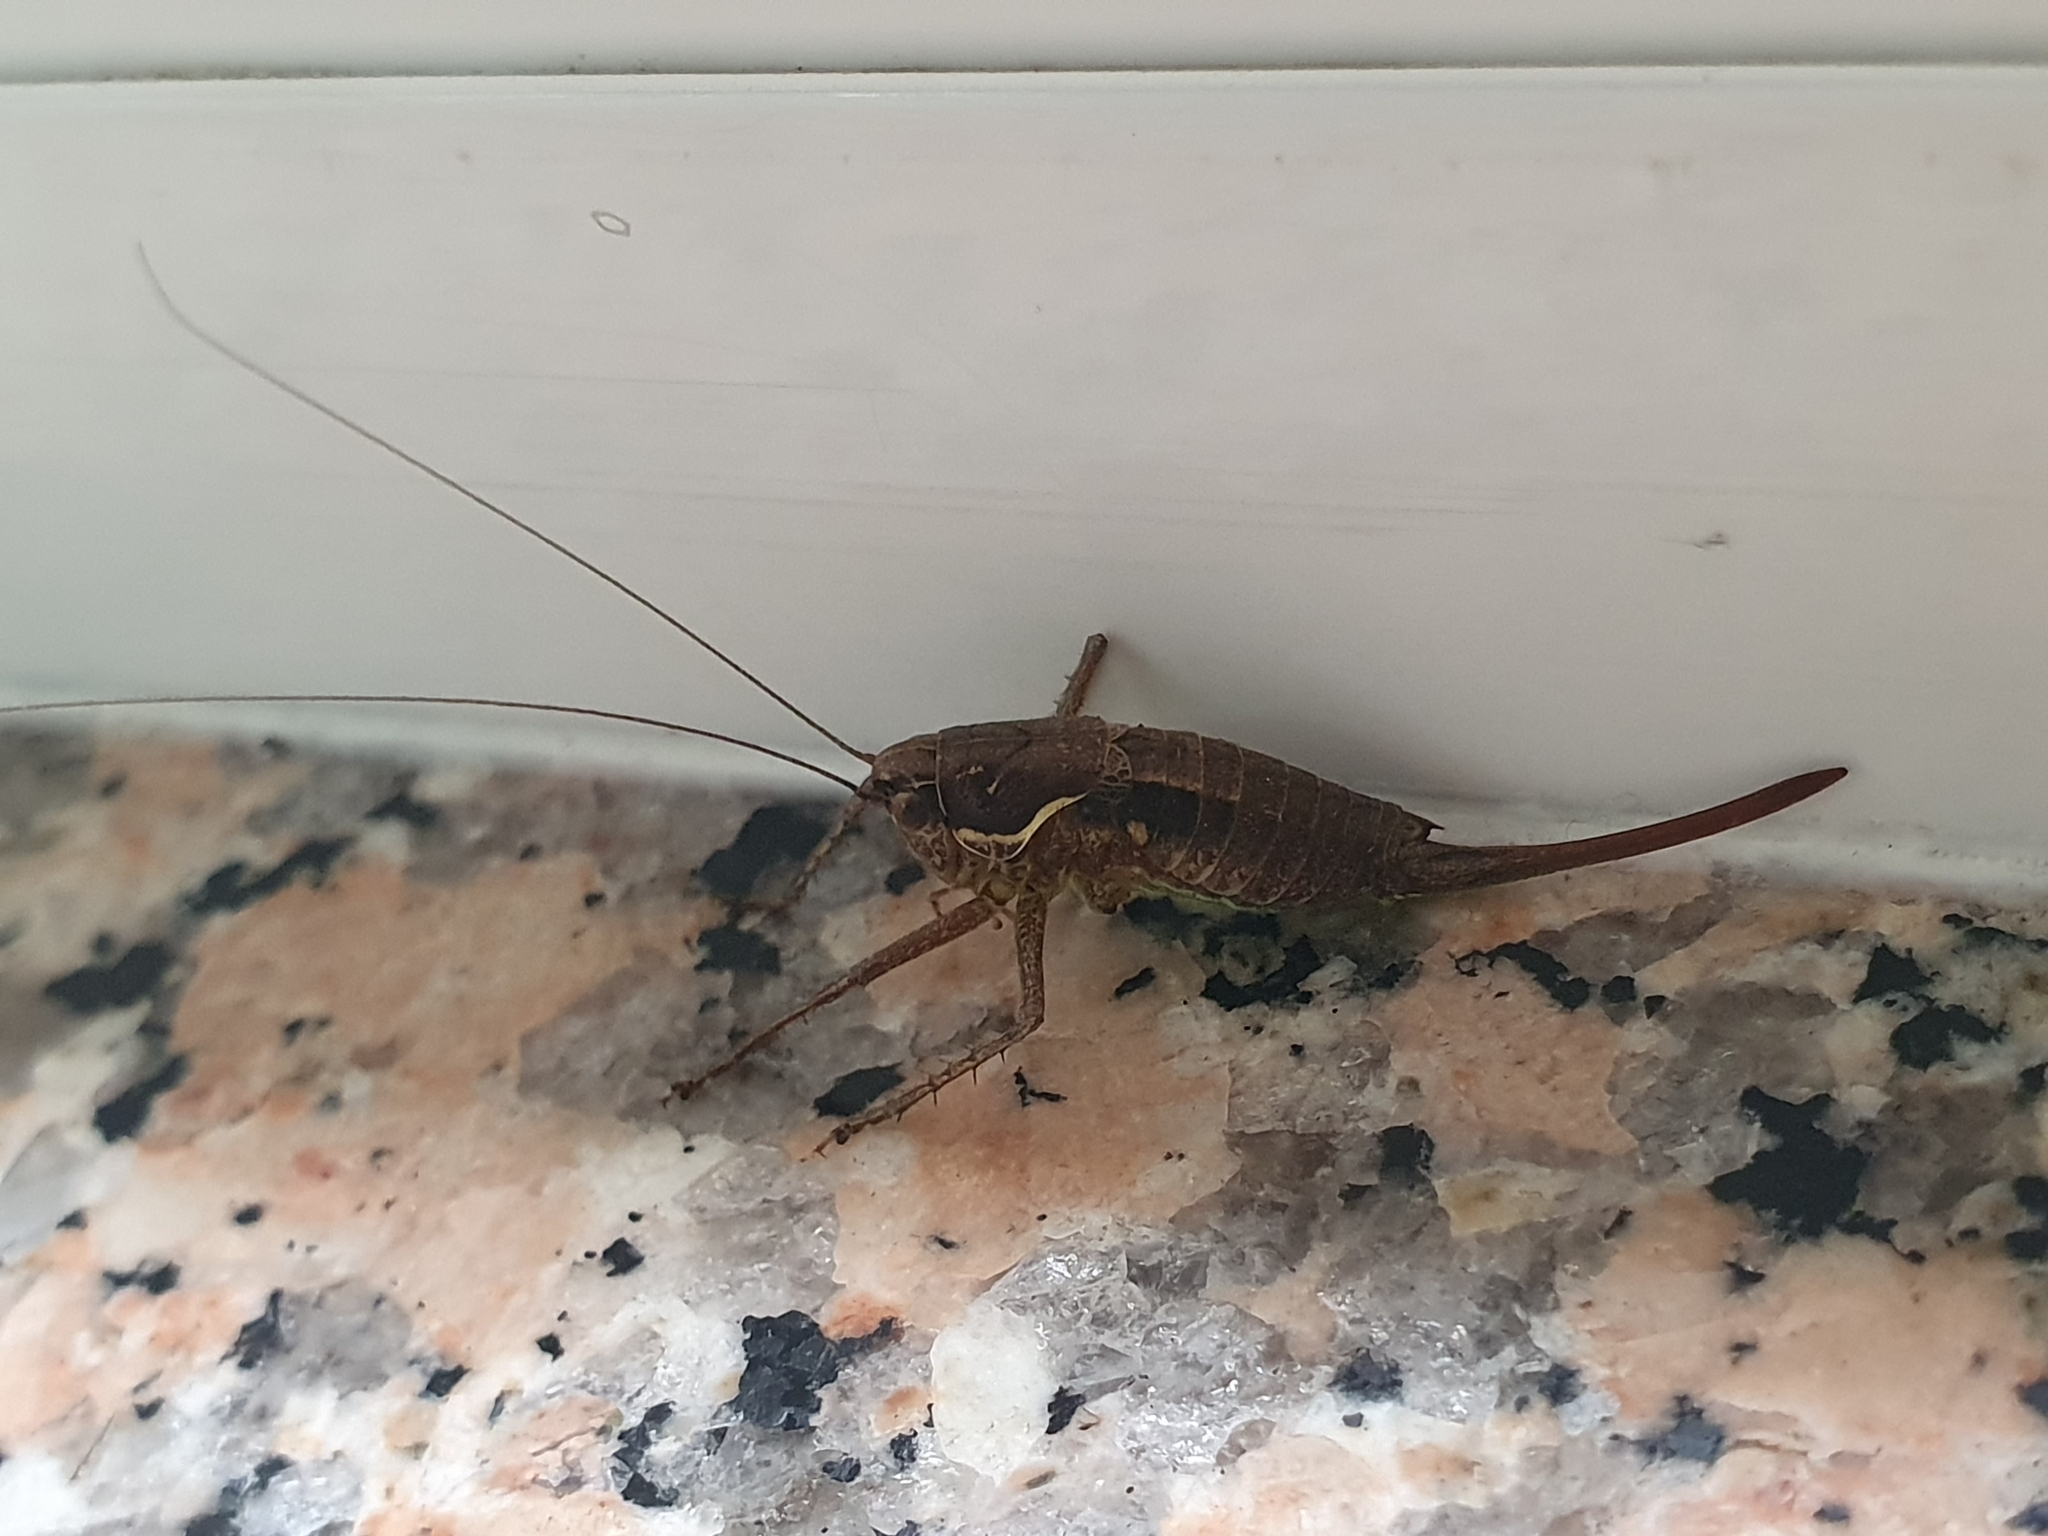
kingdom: Animalia
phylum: Arthropoda
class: Insecta
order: Orthoptera
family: Tettigoniidae
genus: Pachytrachis
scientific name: Pachytrachis gracilis
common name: Graceful bush-cricket
